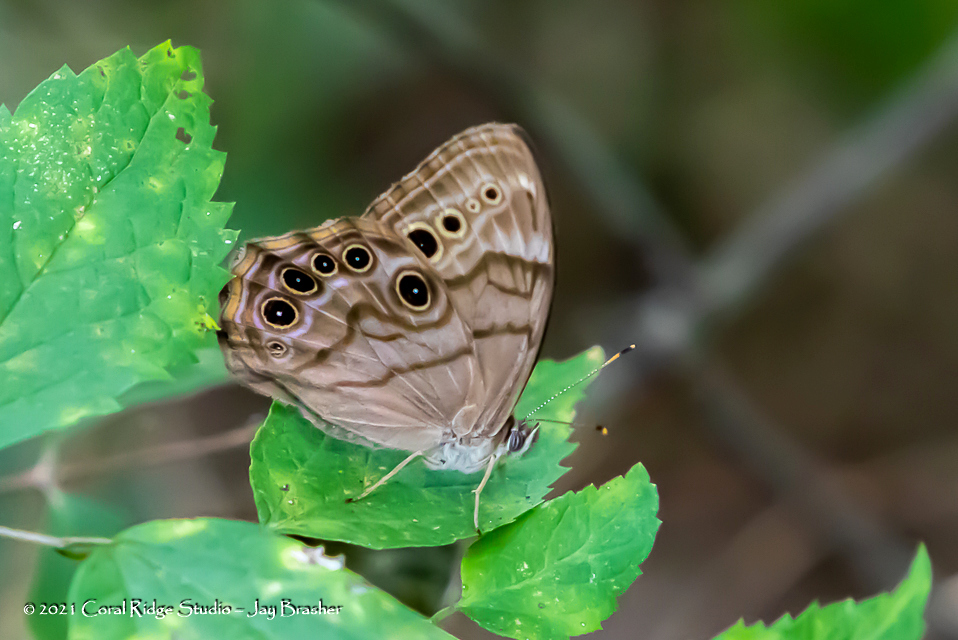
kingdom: Animalia
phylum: Arthropoda
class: Insecta
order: Lepidoptera
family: Nymphalidae
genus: Lethe
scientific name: Lethe anthedon
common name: Northern pearly-eye
